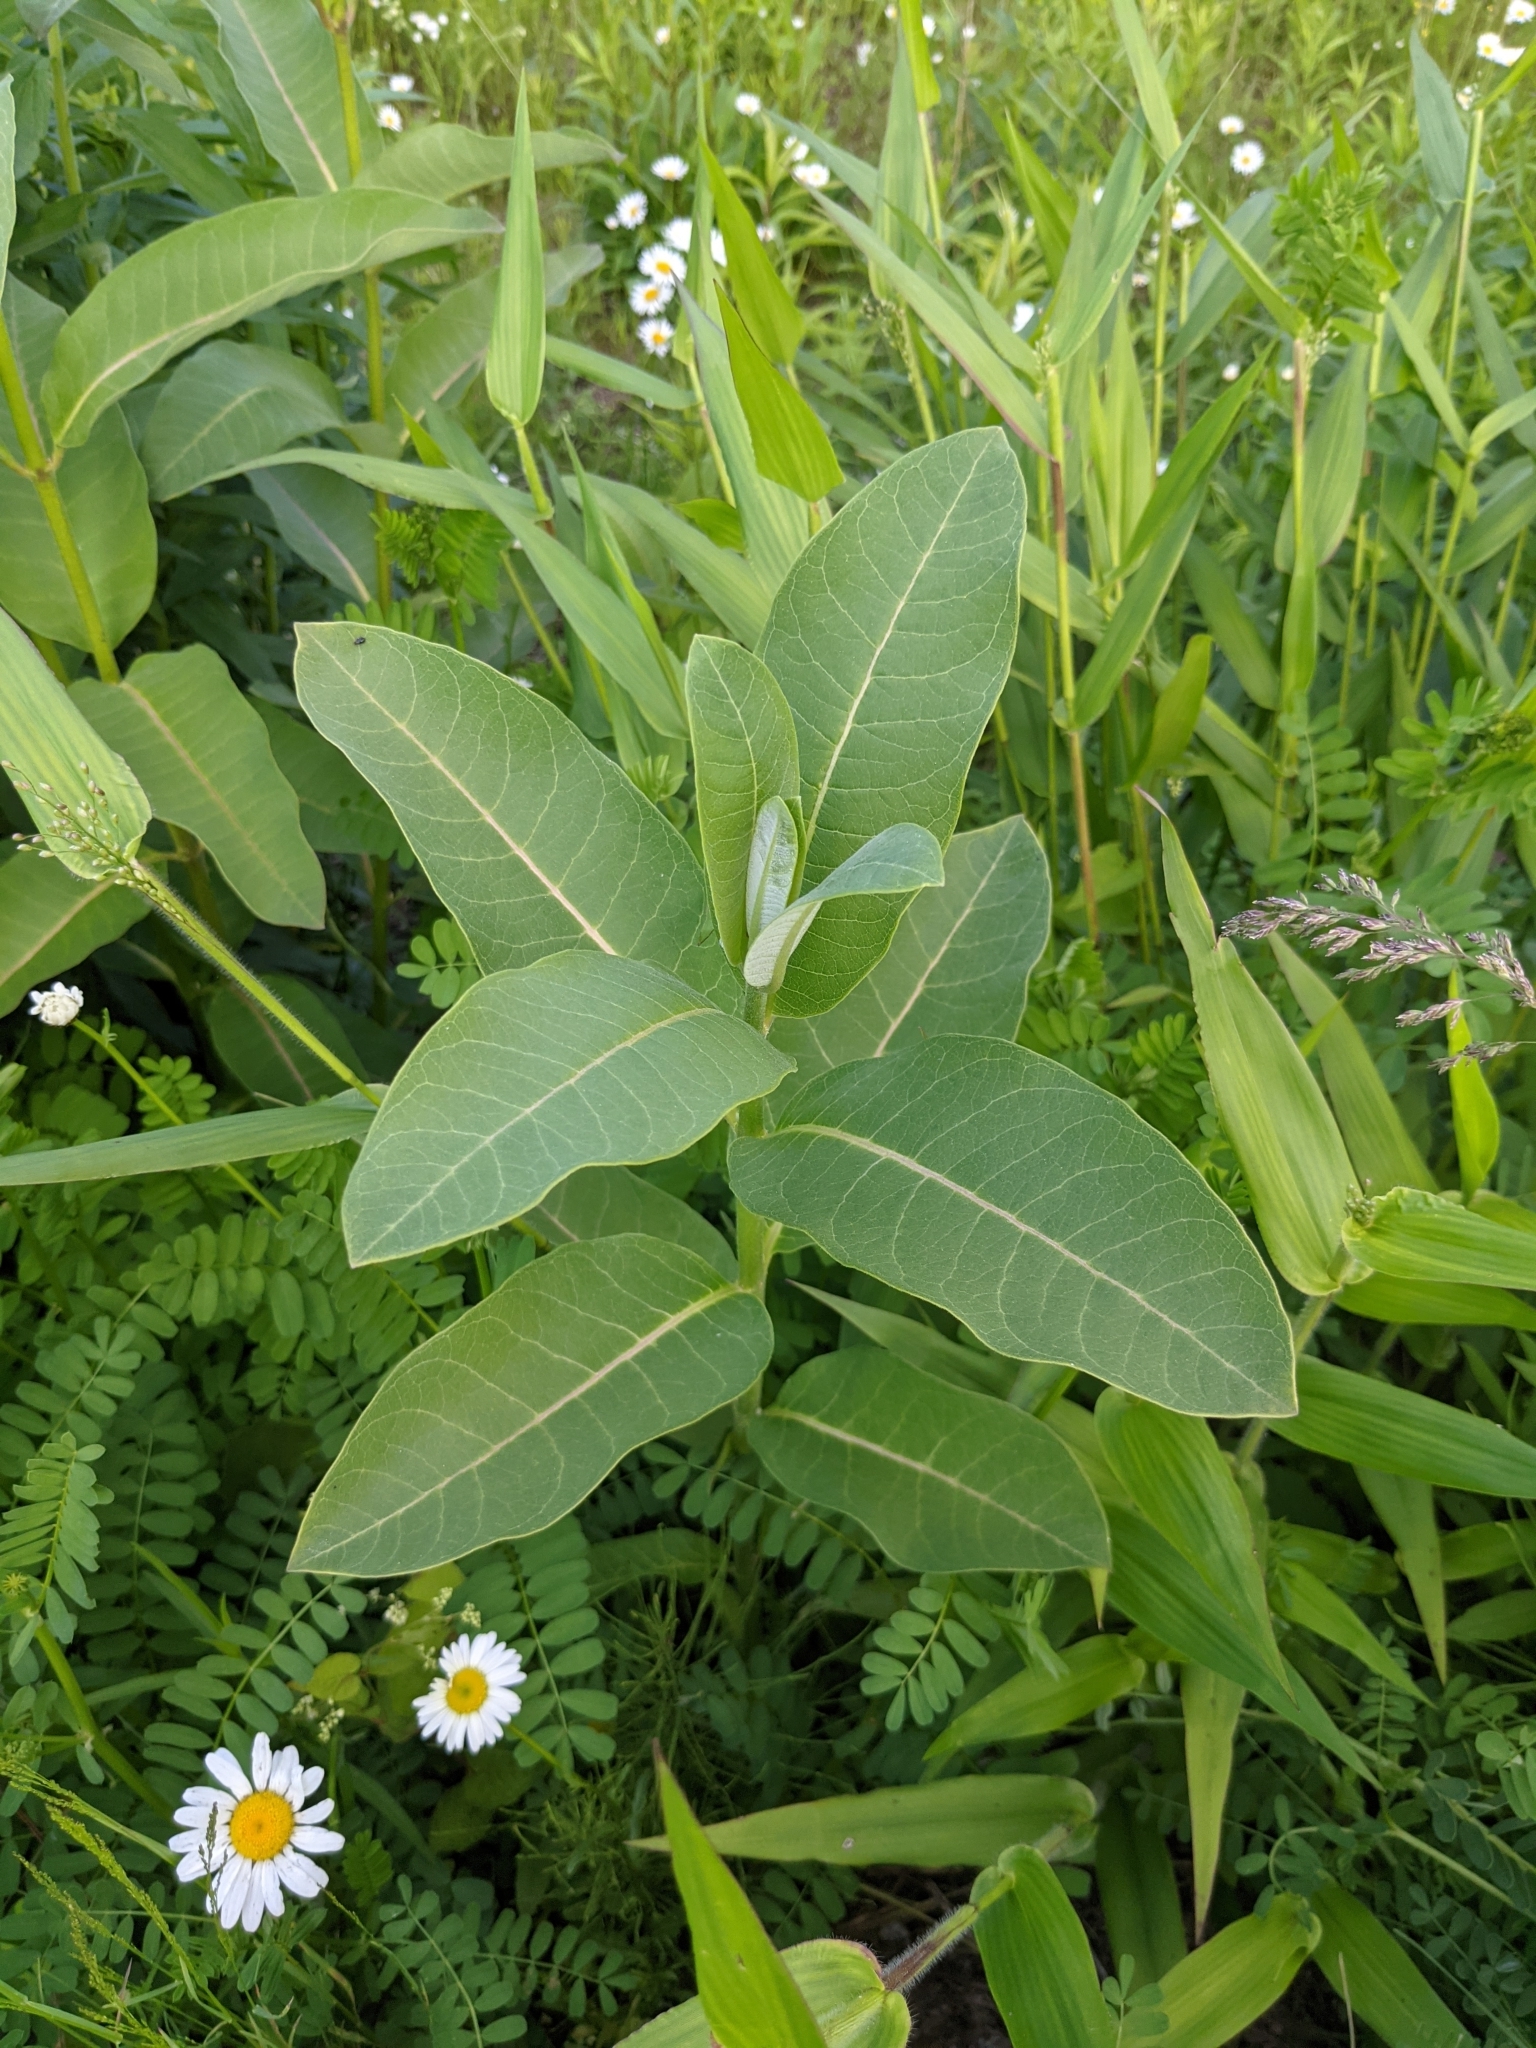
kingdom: Plantae
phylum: Tracheophyta
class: Magnoliopsida
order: Gentianales
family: Apocynaceae
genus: Asclepias
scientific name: Asclepias syriaca
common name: Common milkweed
